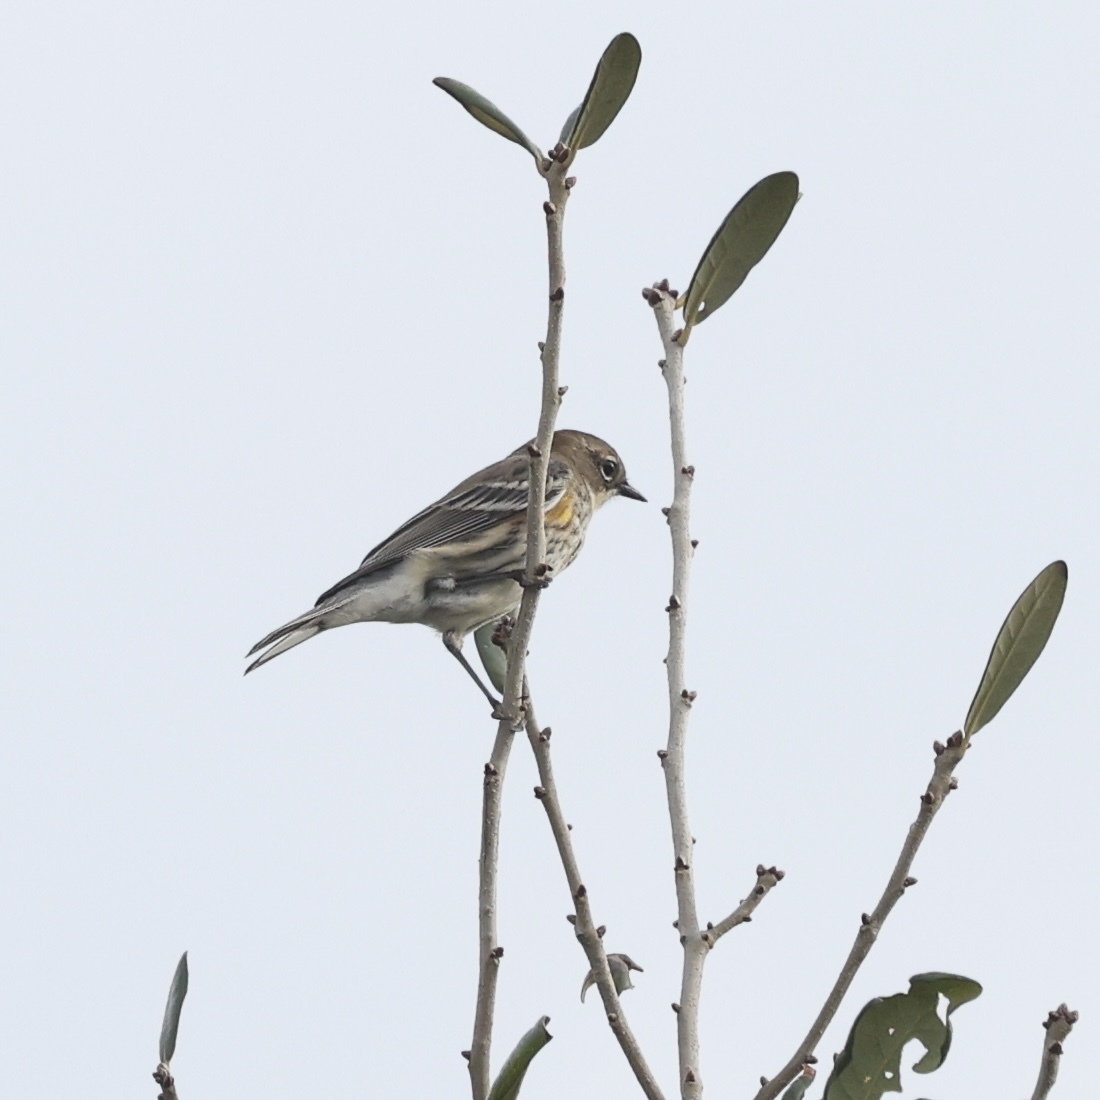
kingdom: Animalia
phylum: Chordata
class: Aves
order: Passeriformes
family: Parulidae
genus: Setophaga
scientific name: Setophaga coronata
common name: Myrtle warbler
